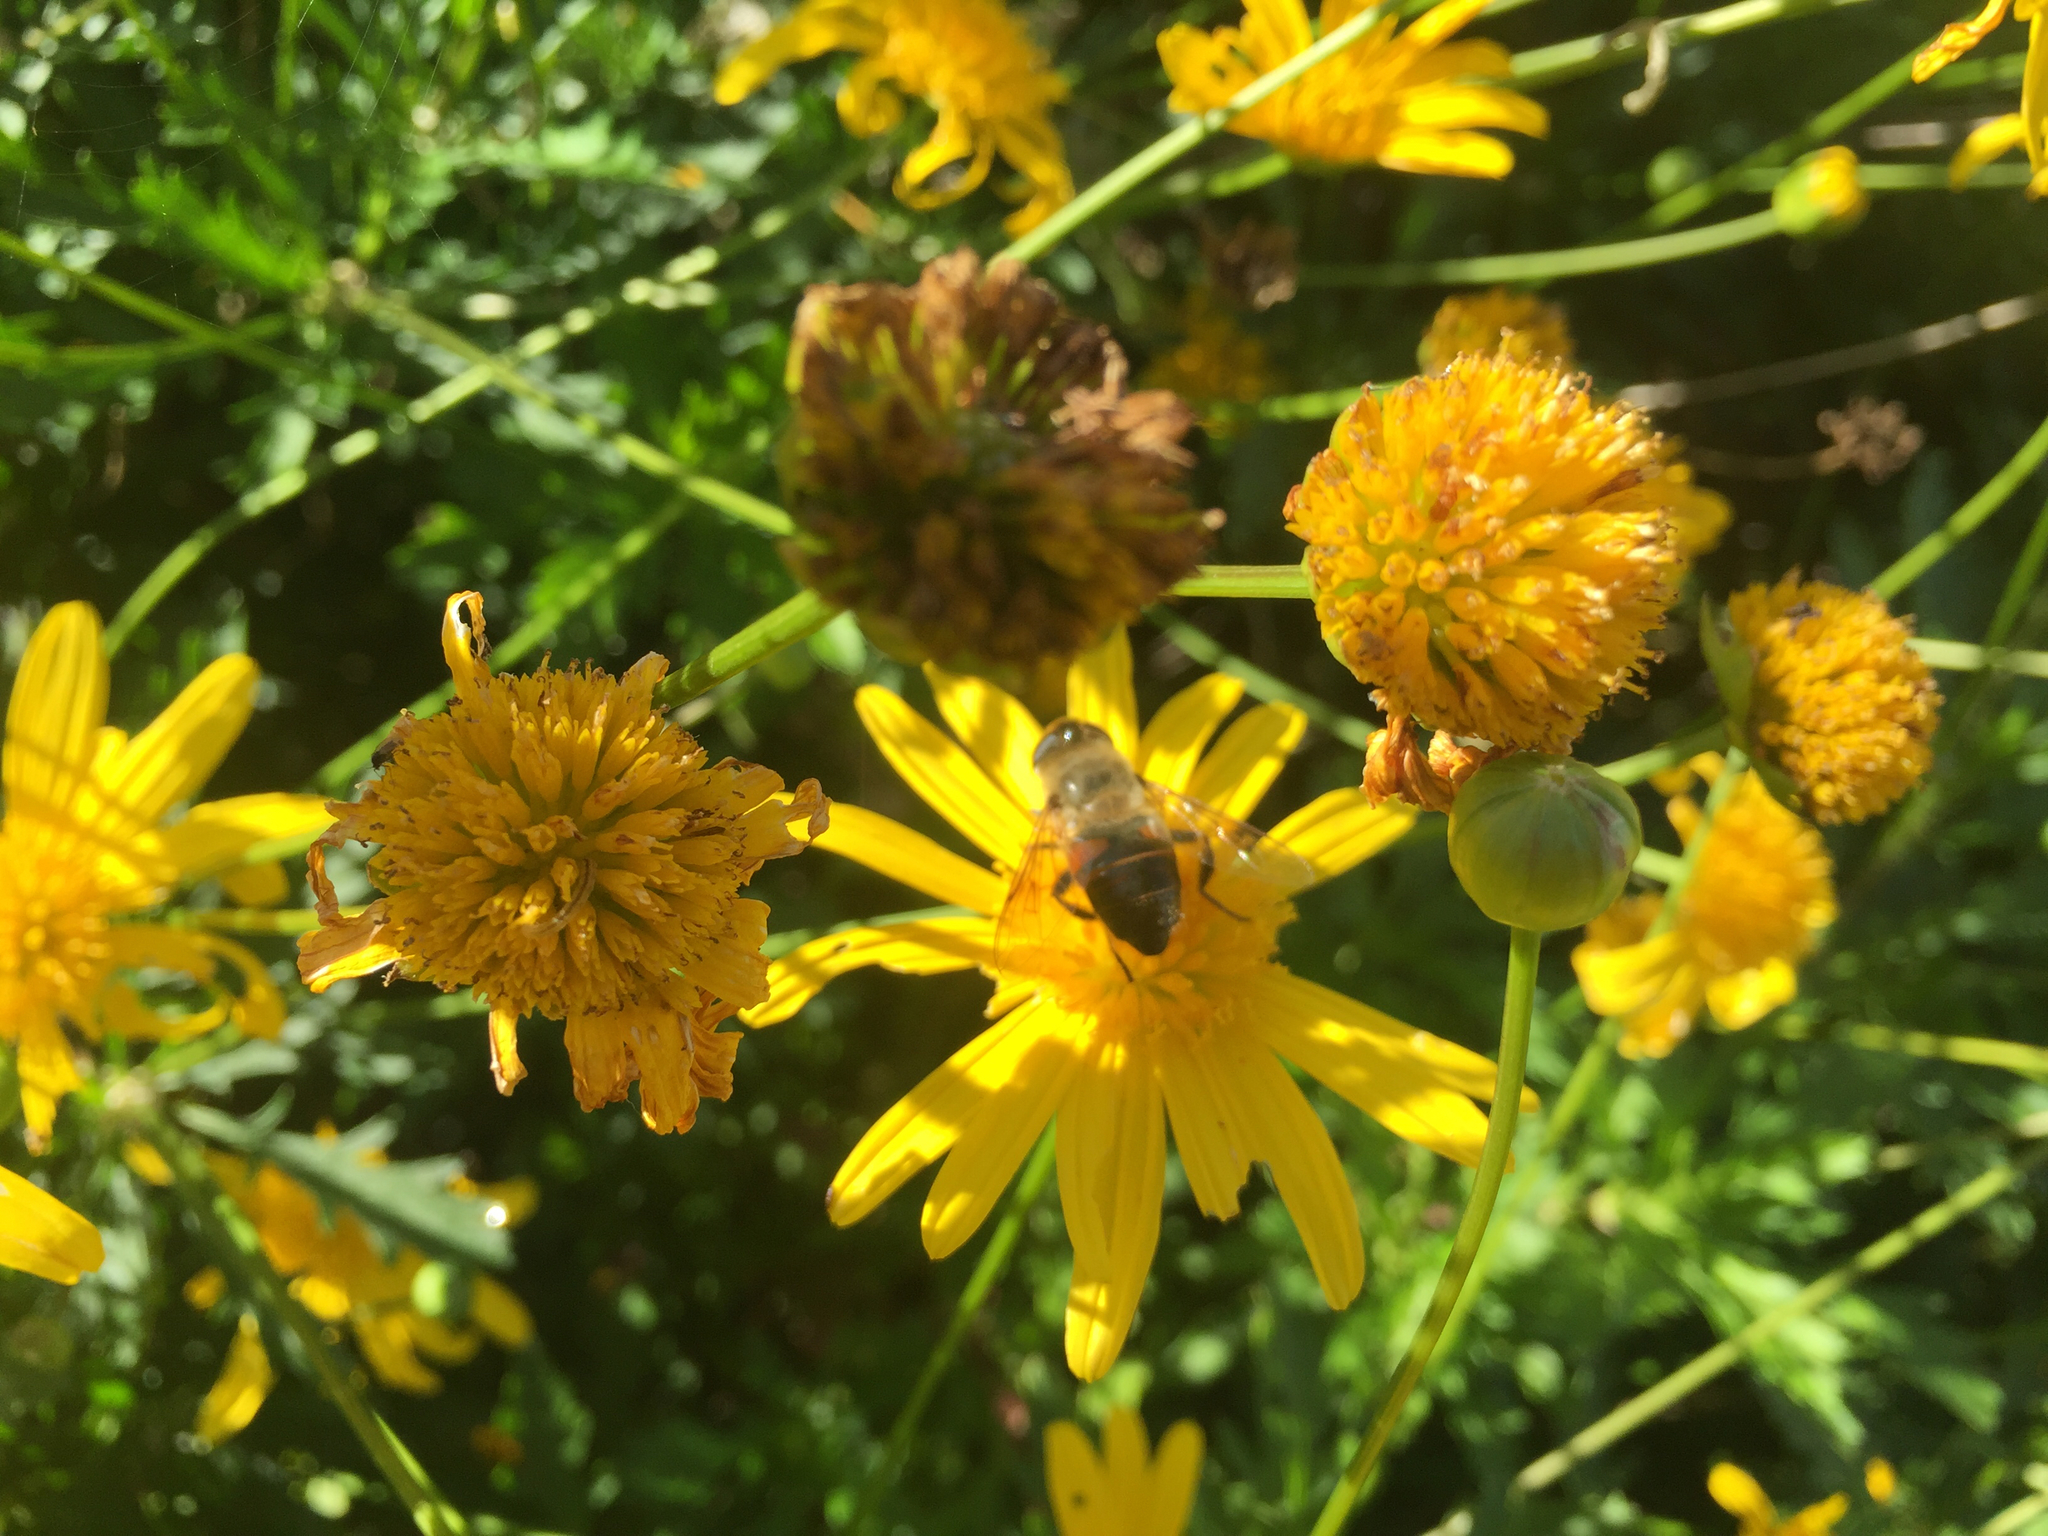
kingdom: Animalia
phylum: Arthropoda
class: Insecta
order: Diptera
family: Syrphidae
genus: Eristalis
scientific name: Eristalis tenax
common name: Drone fly
